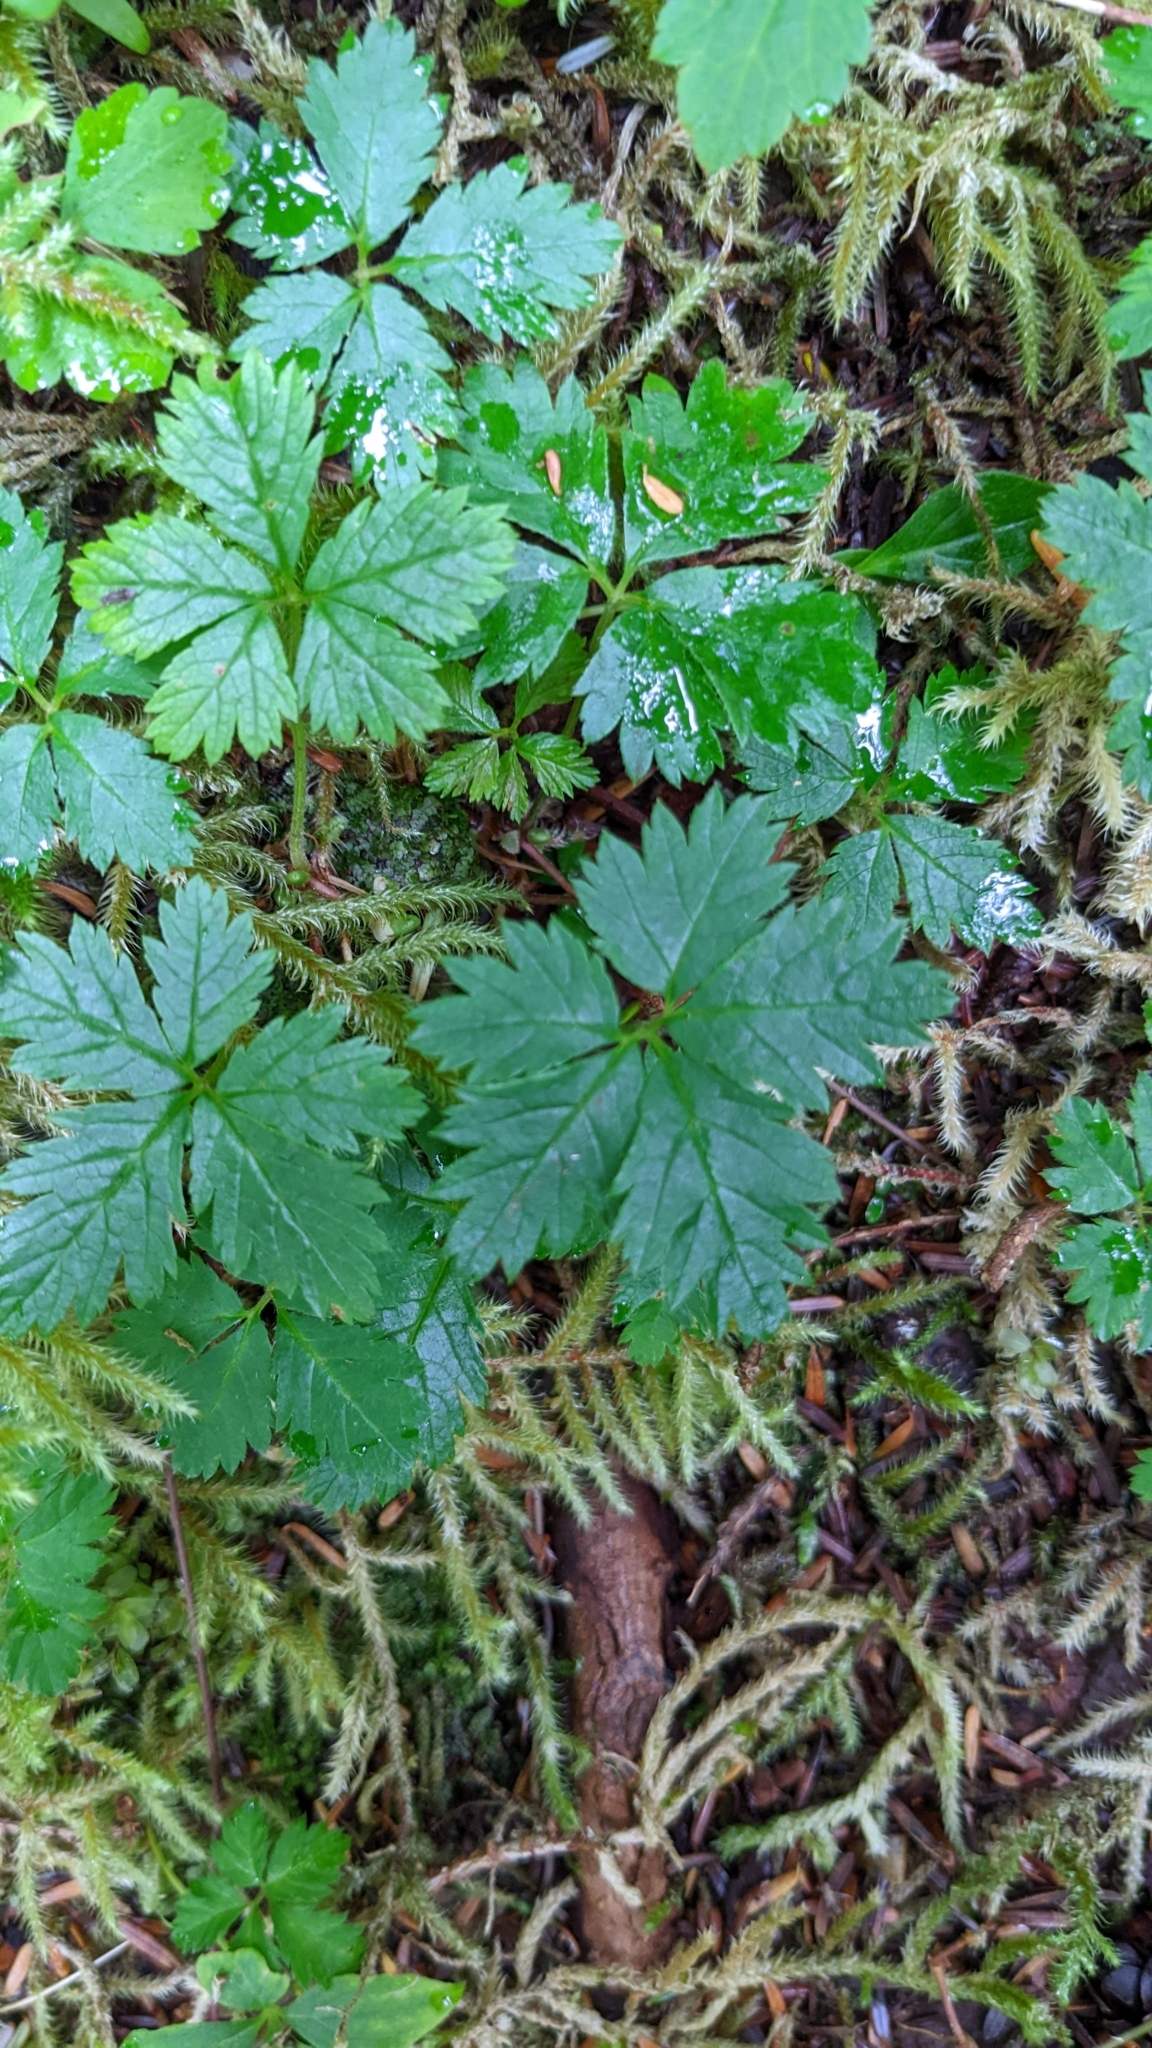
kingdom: Plantae
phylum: Tracheophyta
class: Magnoliopsida
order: Rosales
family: Rosaceae
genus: Rubus
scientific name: Rubus pedatus
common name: Creeping raspberry
